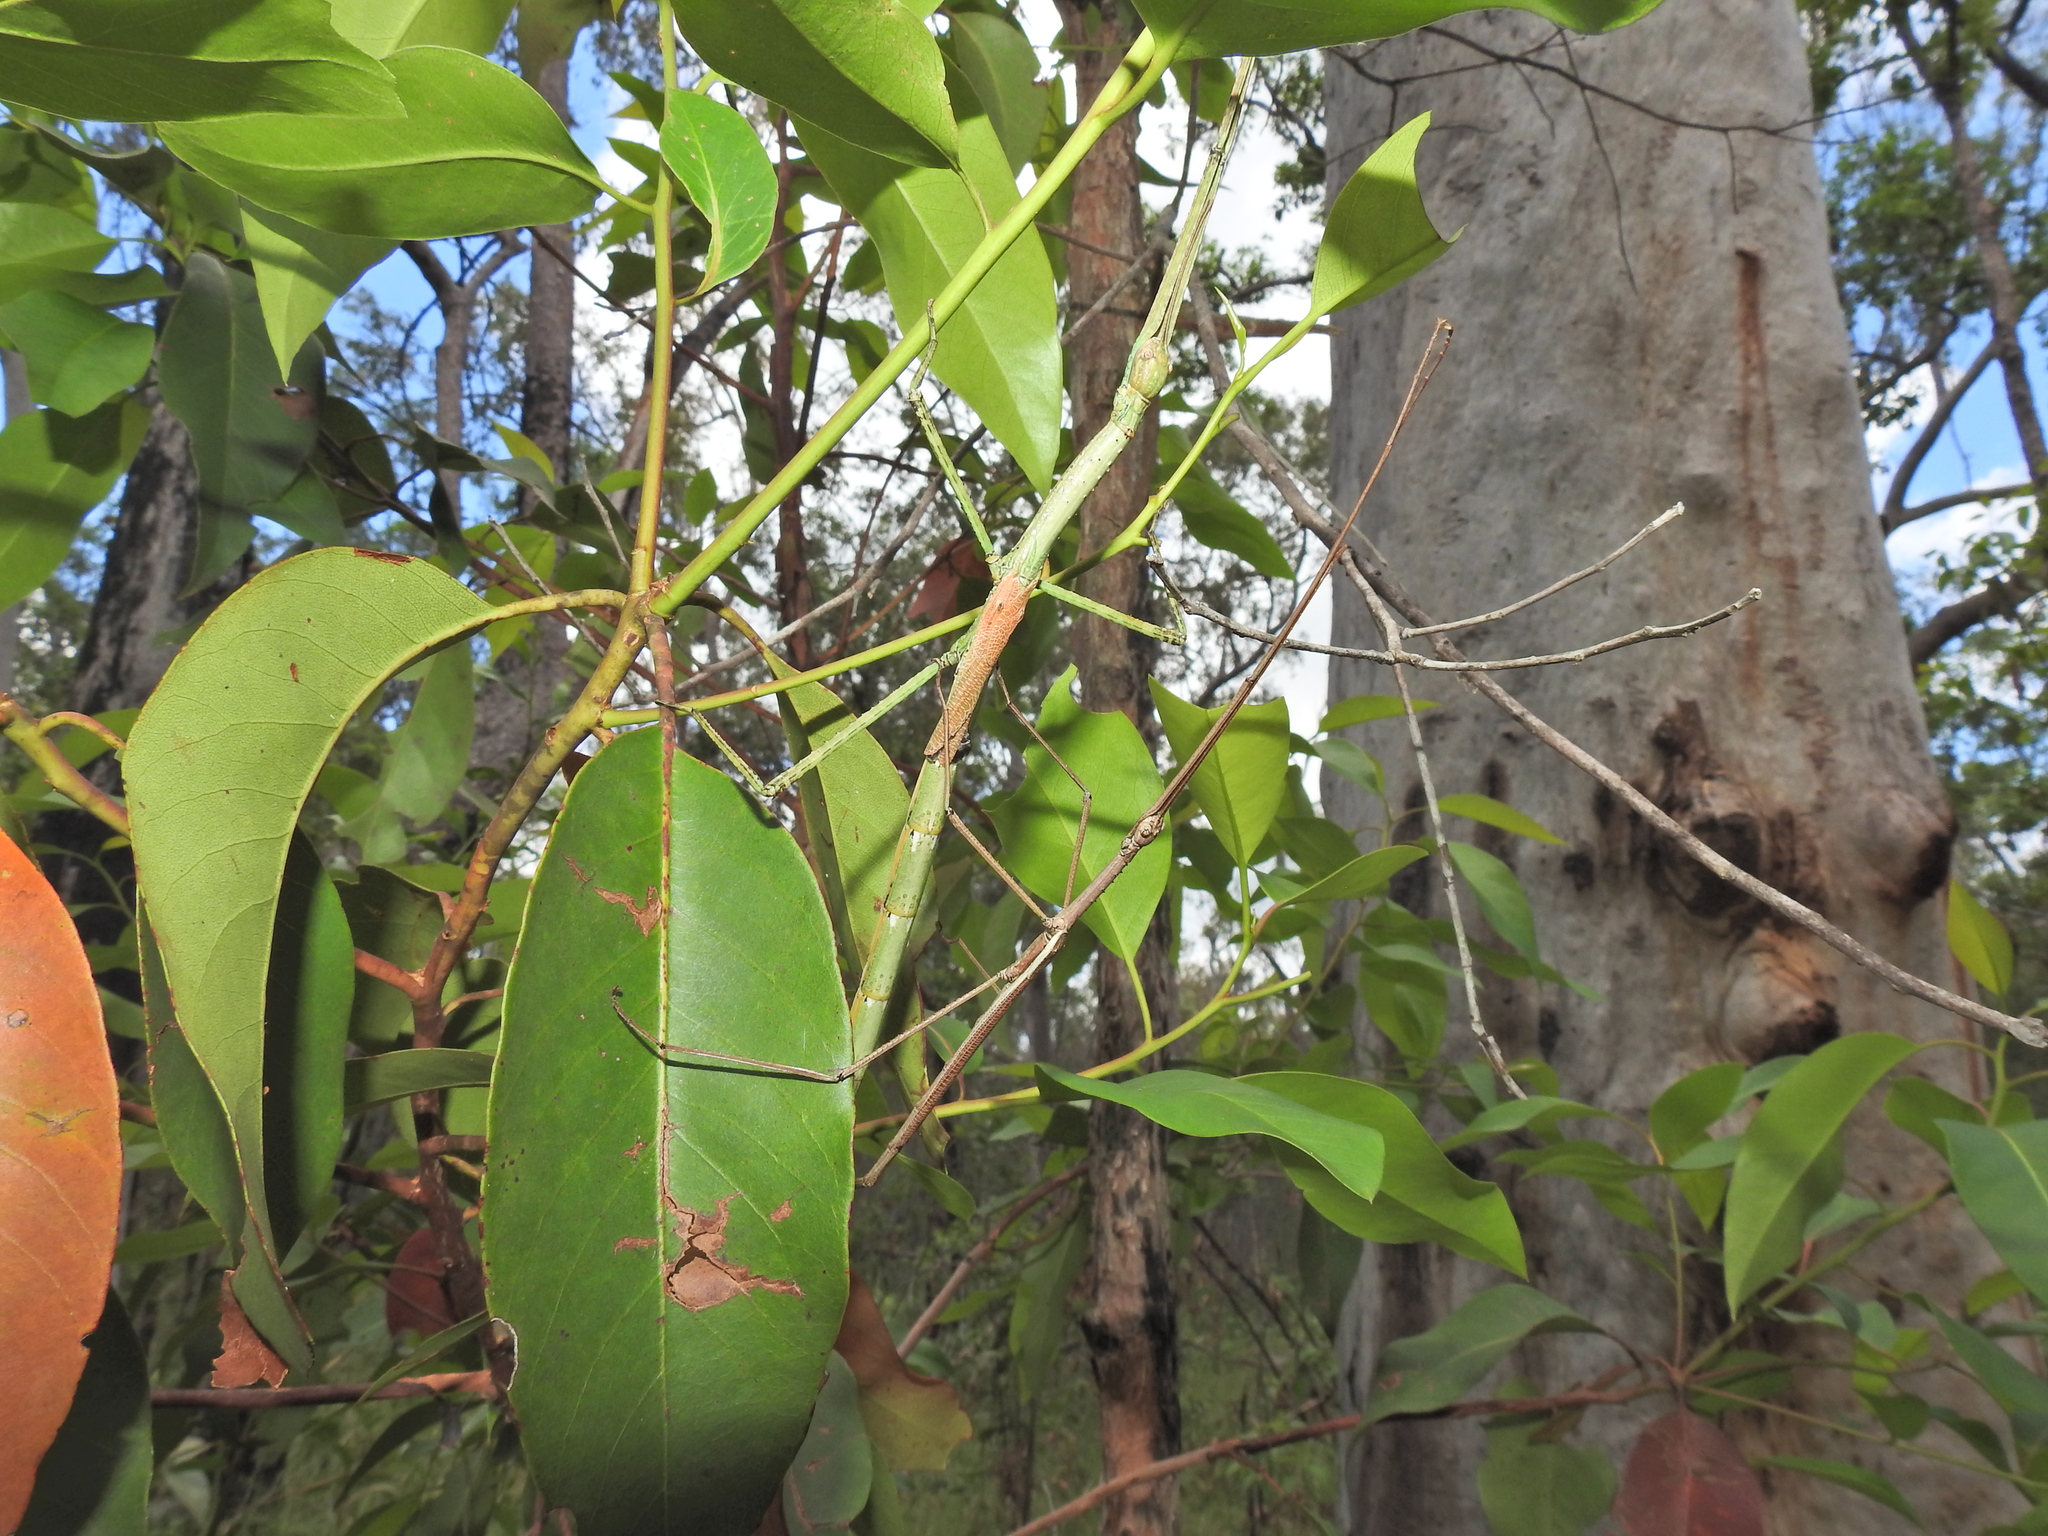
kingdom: Animalia
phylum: Arthropoda
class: Insecta
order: Phasmida
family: Phasmatidae
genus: Anchiale
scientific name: Anchiale austrotessulata
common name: Tessellated stick-insect
